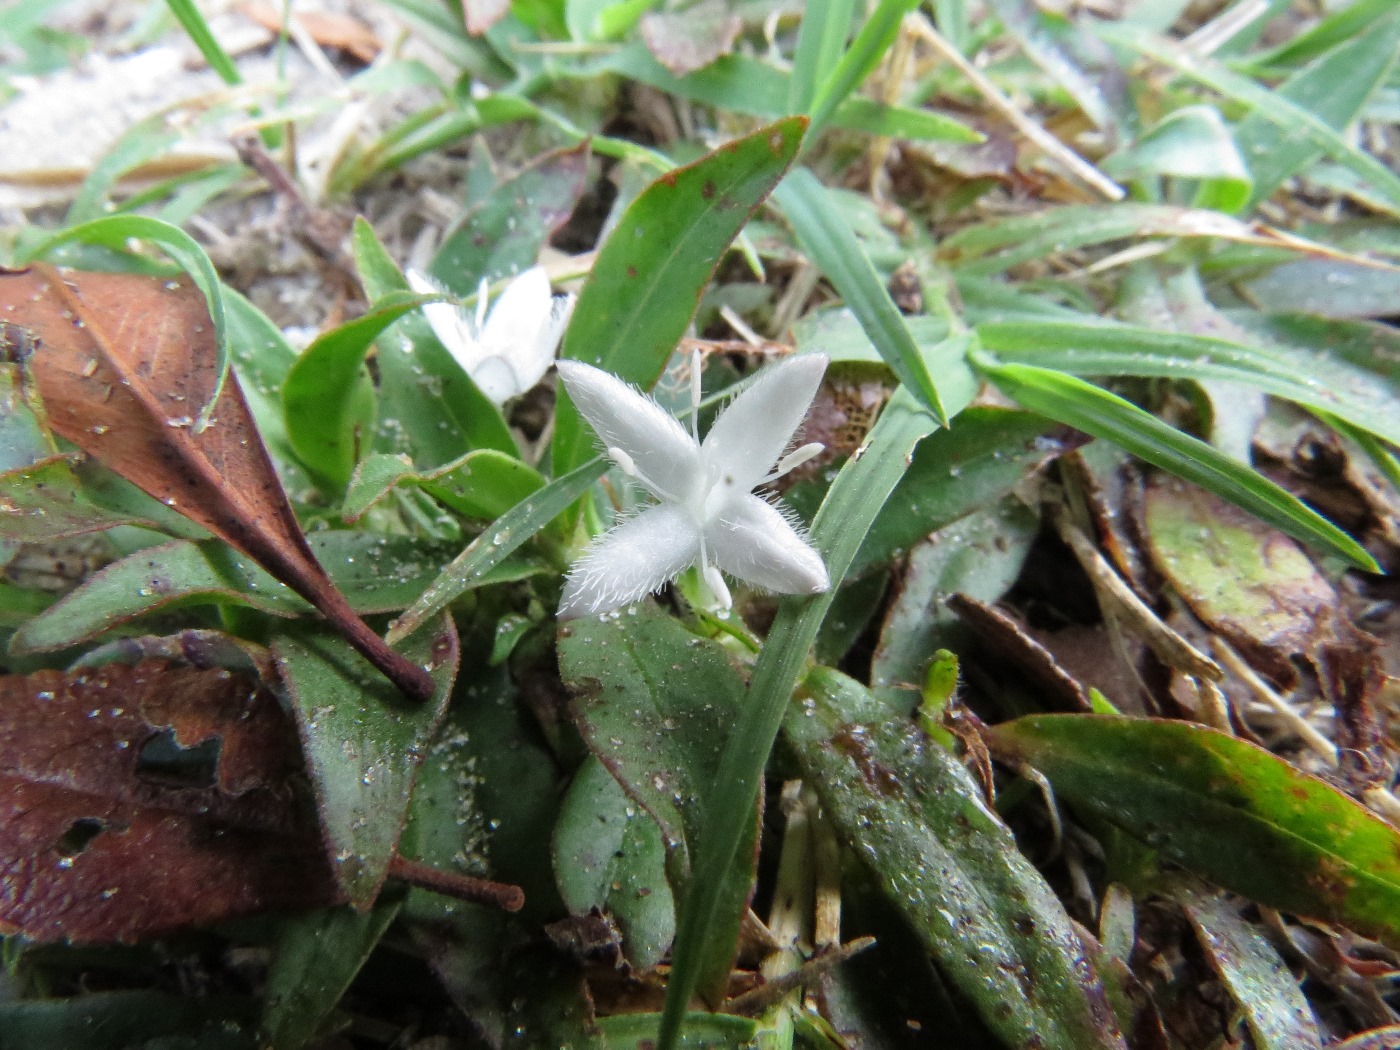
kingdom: Plantae
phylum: Tracheophyta
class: Magnoliopsida
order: Gentianales
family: Rubiaceae
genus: Diodia
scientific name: Diodia virginiana
